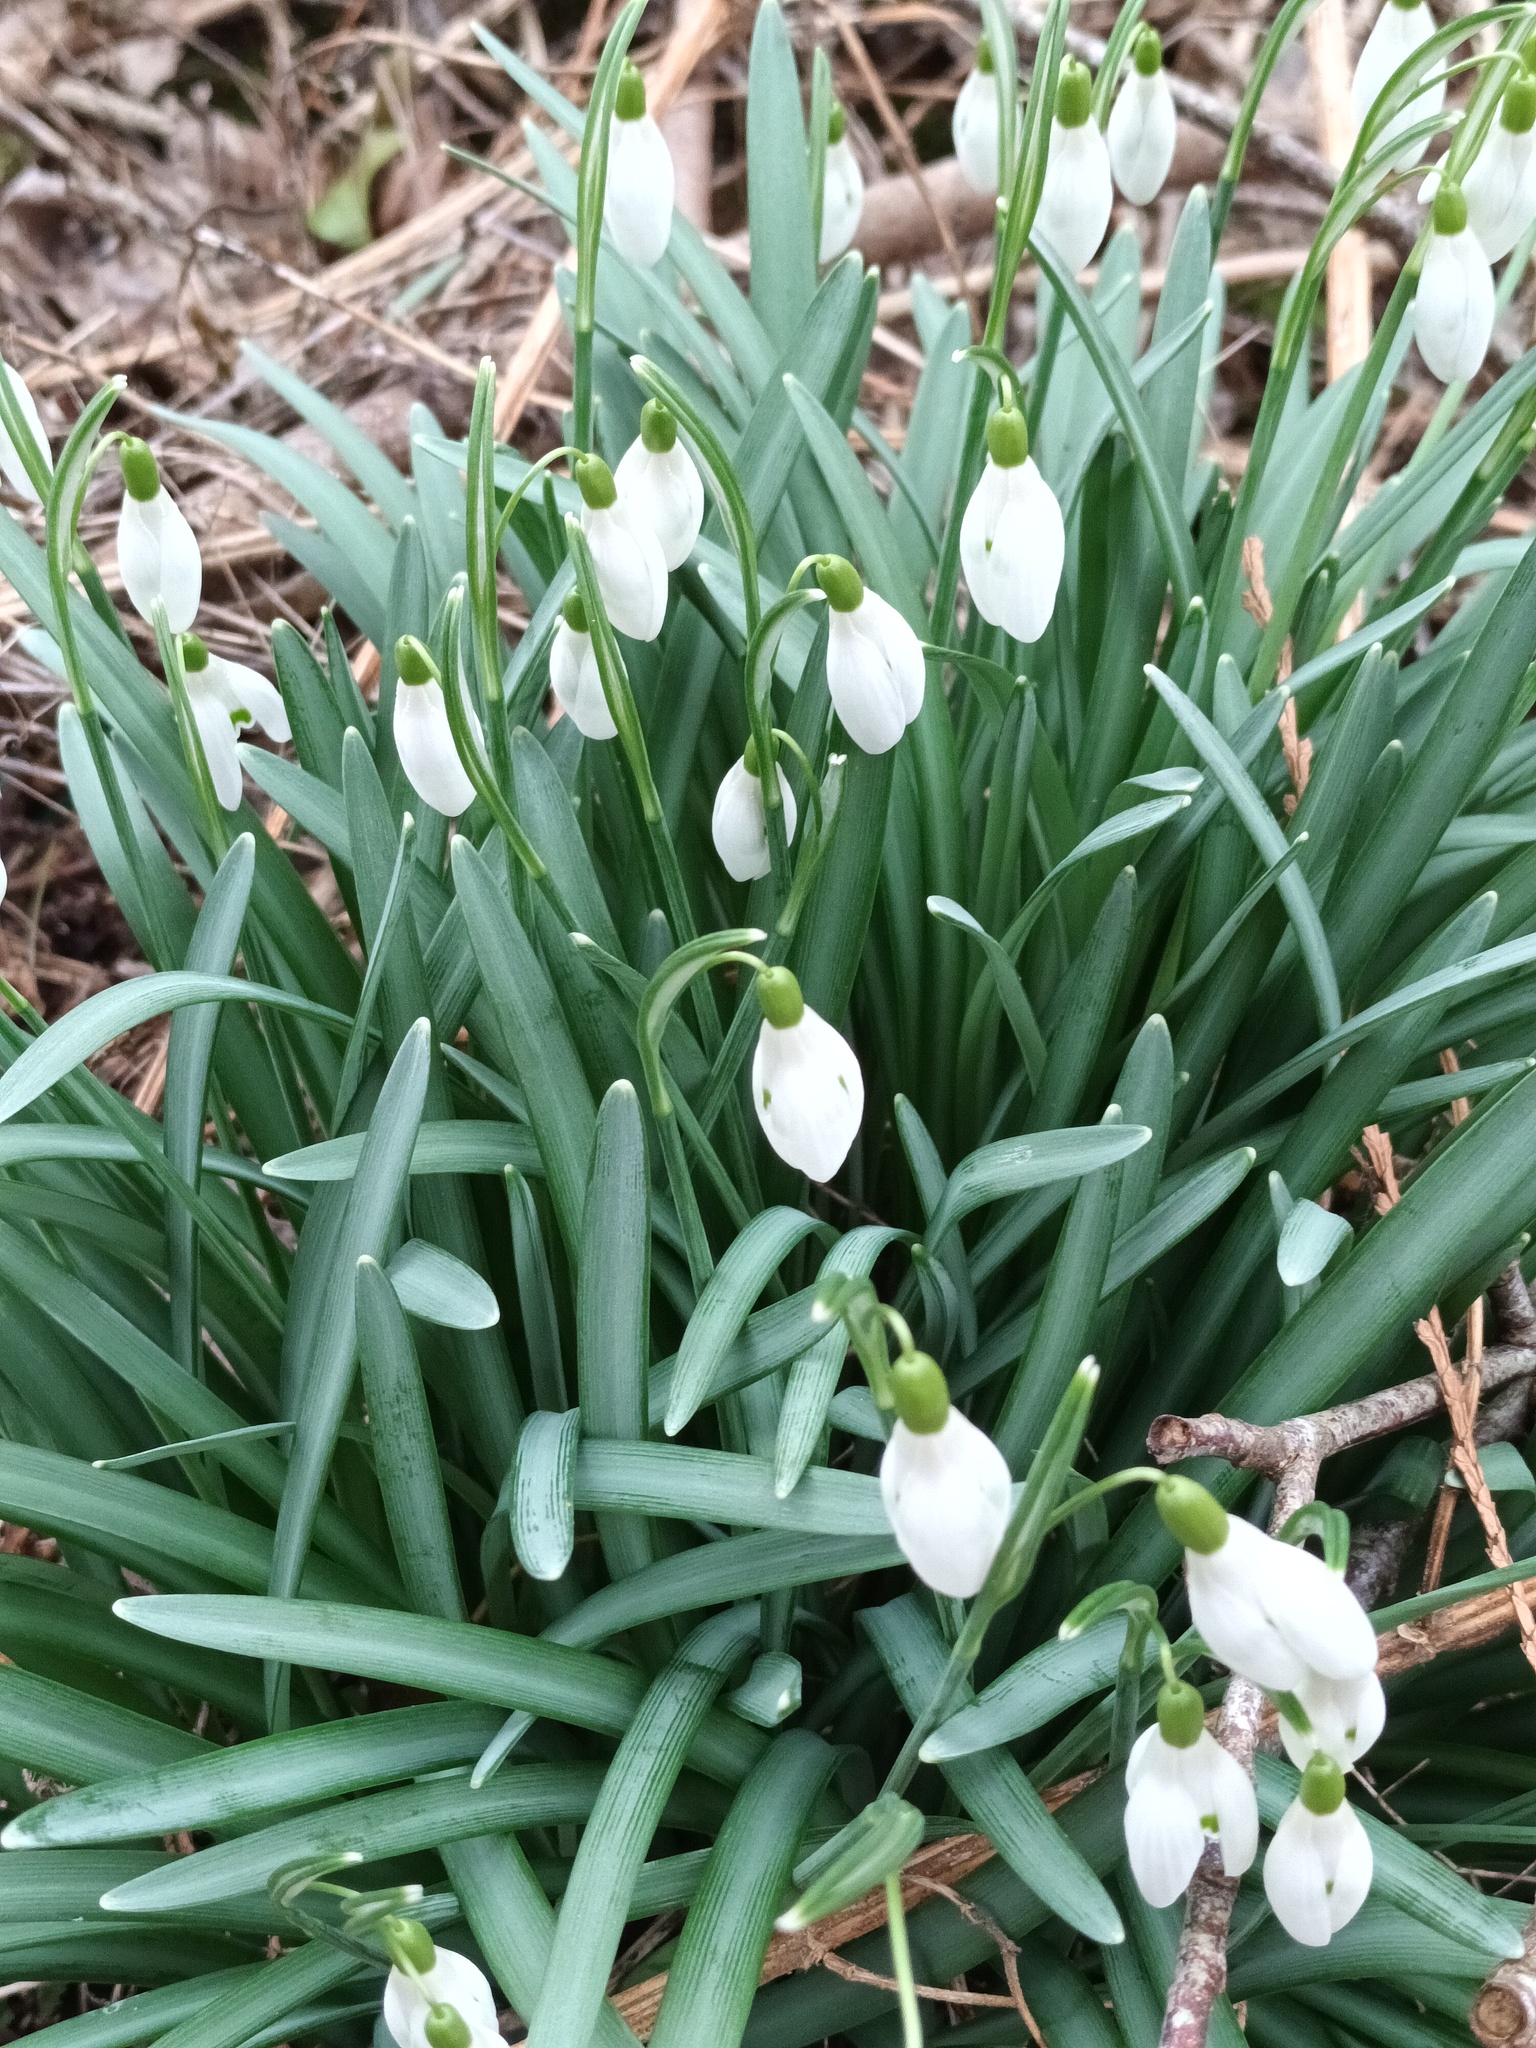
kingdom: Plantae
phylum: Tracheophyta
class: Liliopsida
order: Asparagales
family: Amaryllidaceae
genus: Galanthus
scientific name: Galanthus nivalis
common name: Snowdrop
